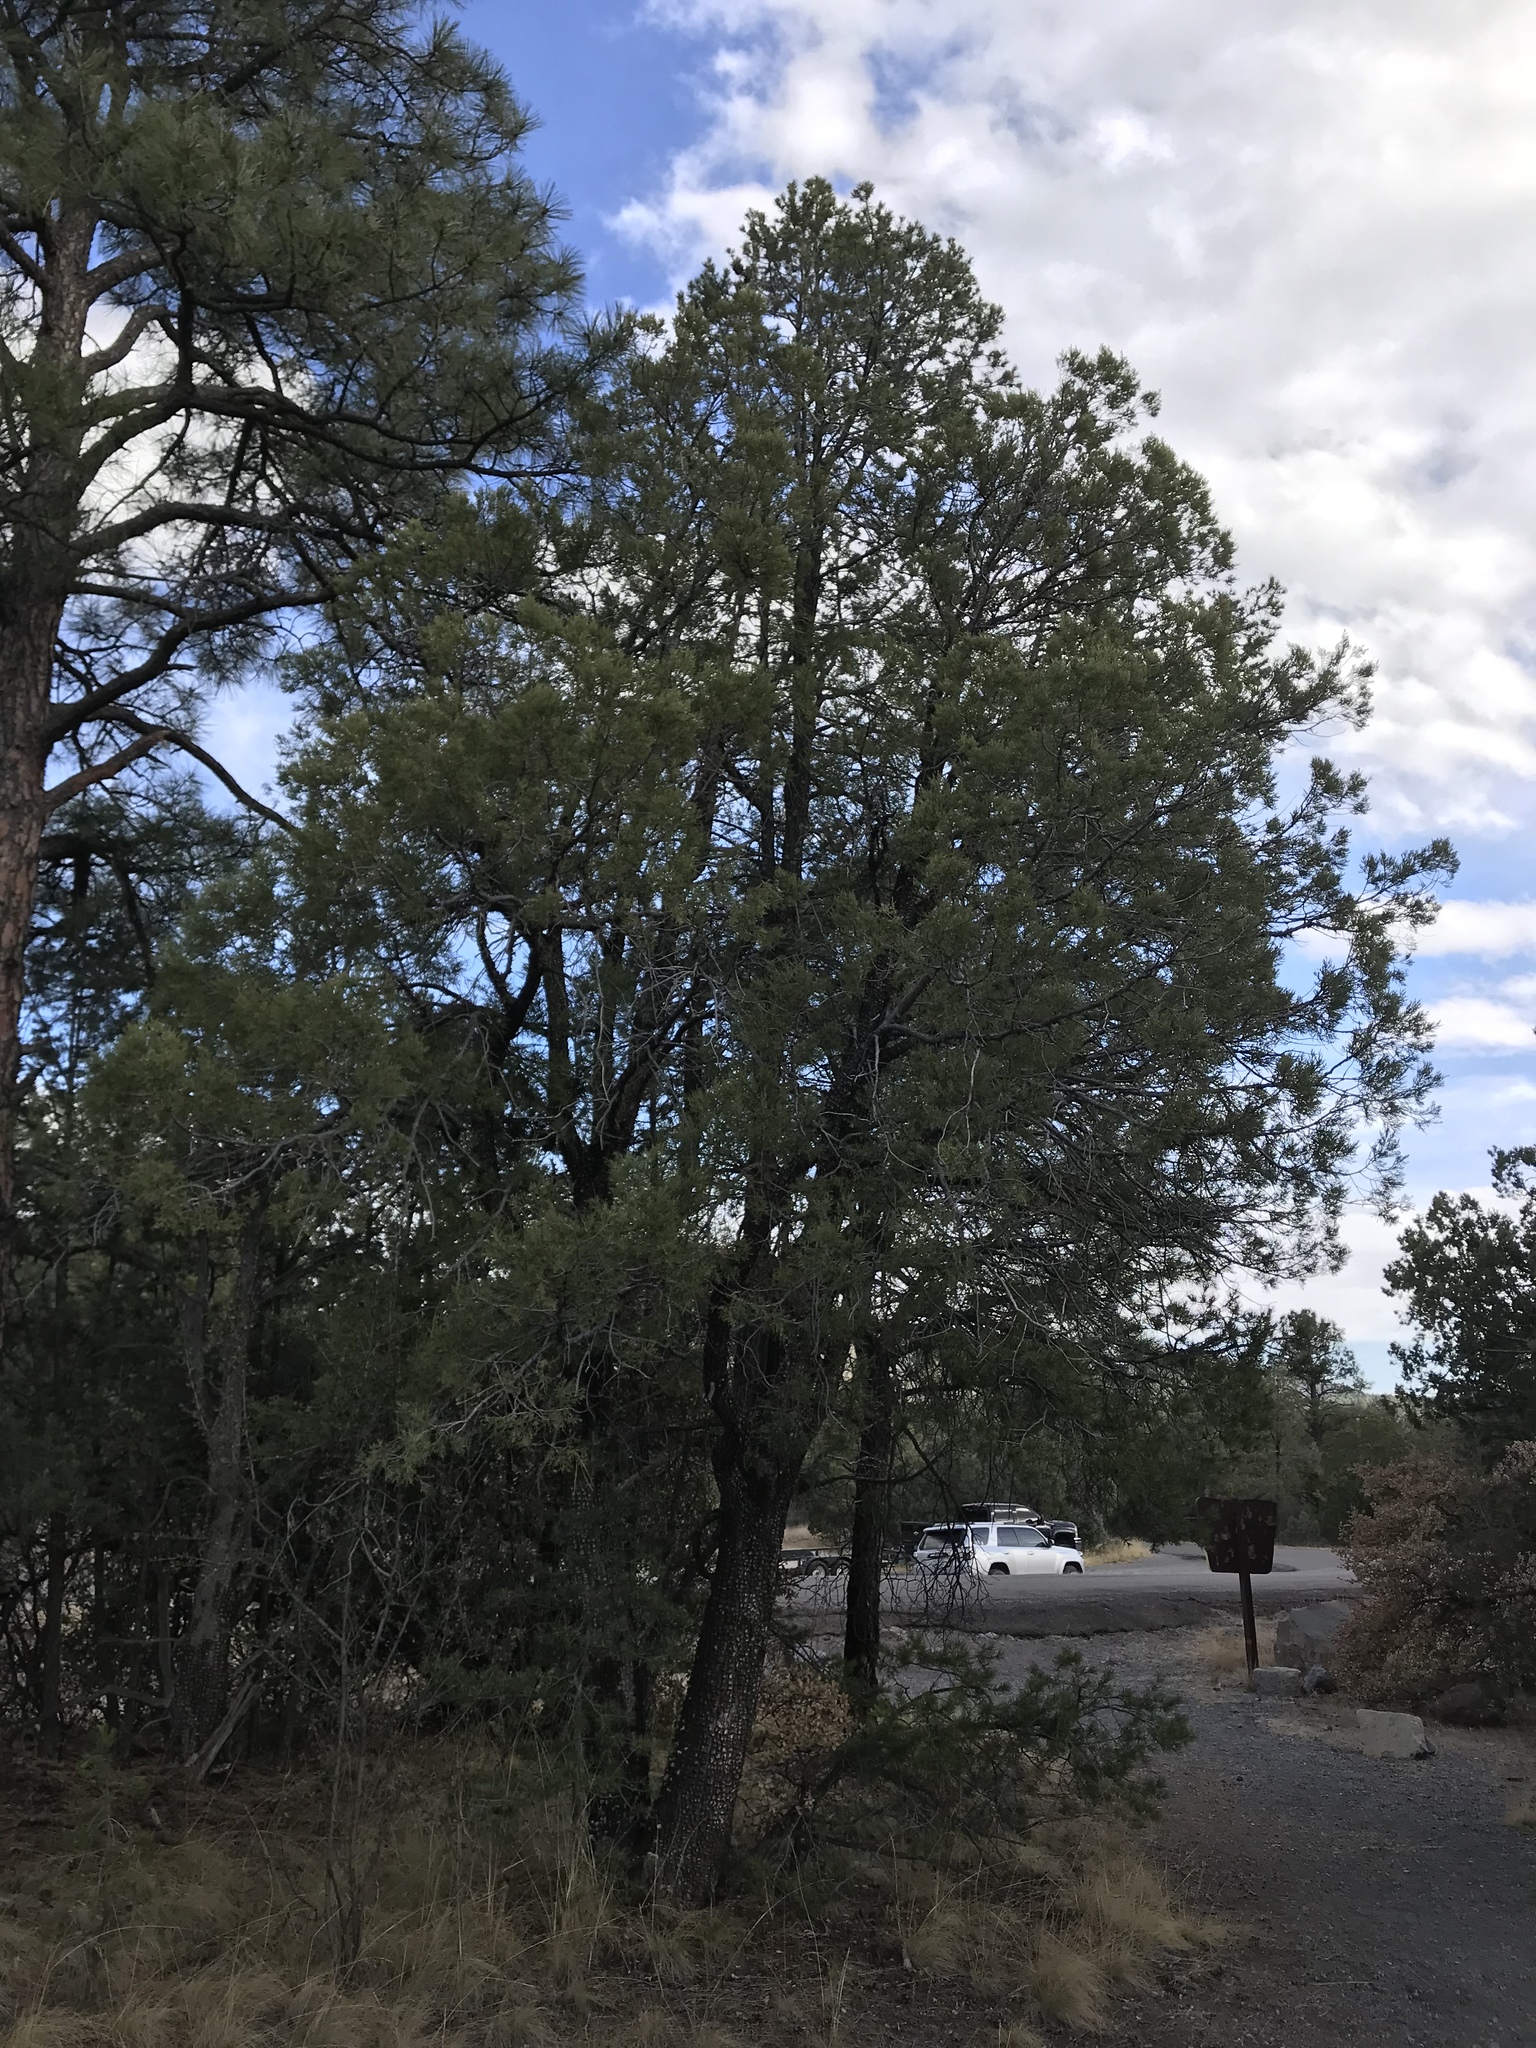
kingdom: Plantae
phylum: Tracheophyta
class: Pinopsida
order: Pinales
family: Cupressaceae
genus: Juniperus
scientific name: Juniperus deppeana
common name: Alligator juniper
